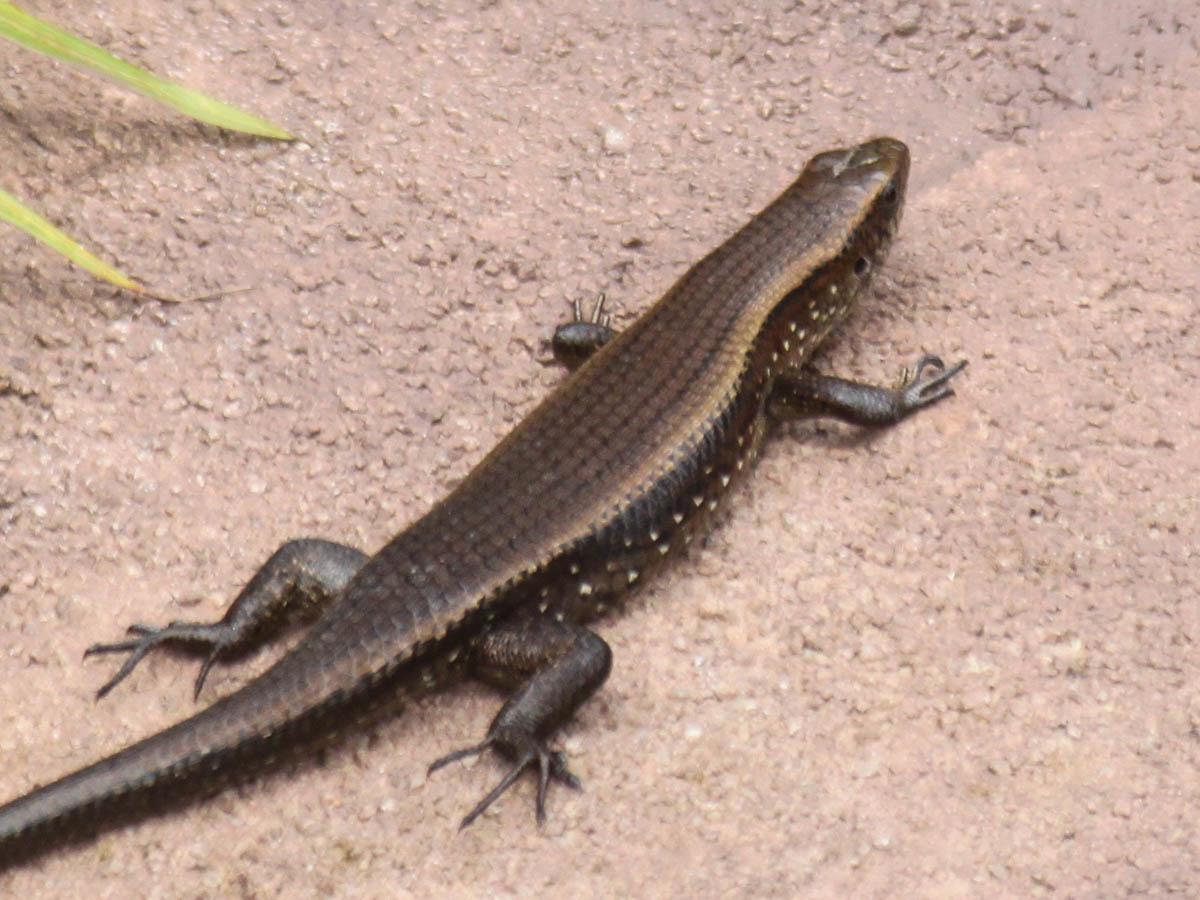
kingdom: Animalia
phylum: Chordata
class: Squamata
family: Scincidae
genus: Eutropis
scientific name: Eutropis multifasciata
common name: Common mabuya
